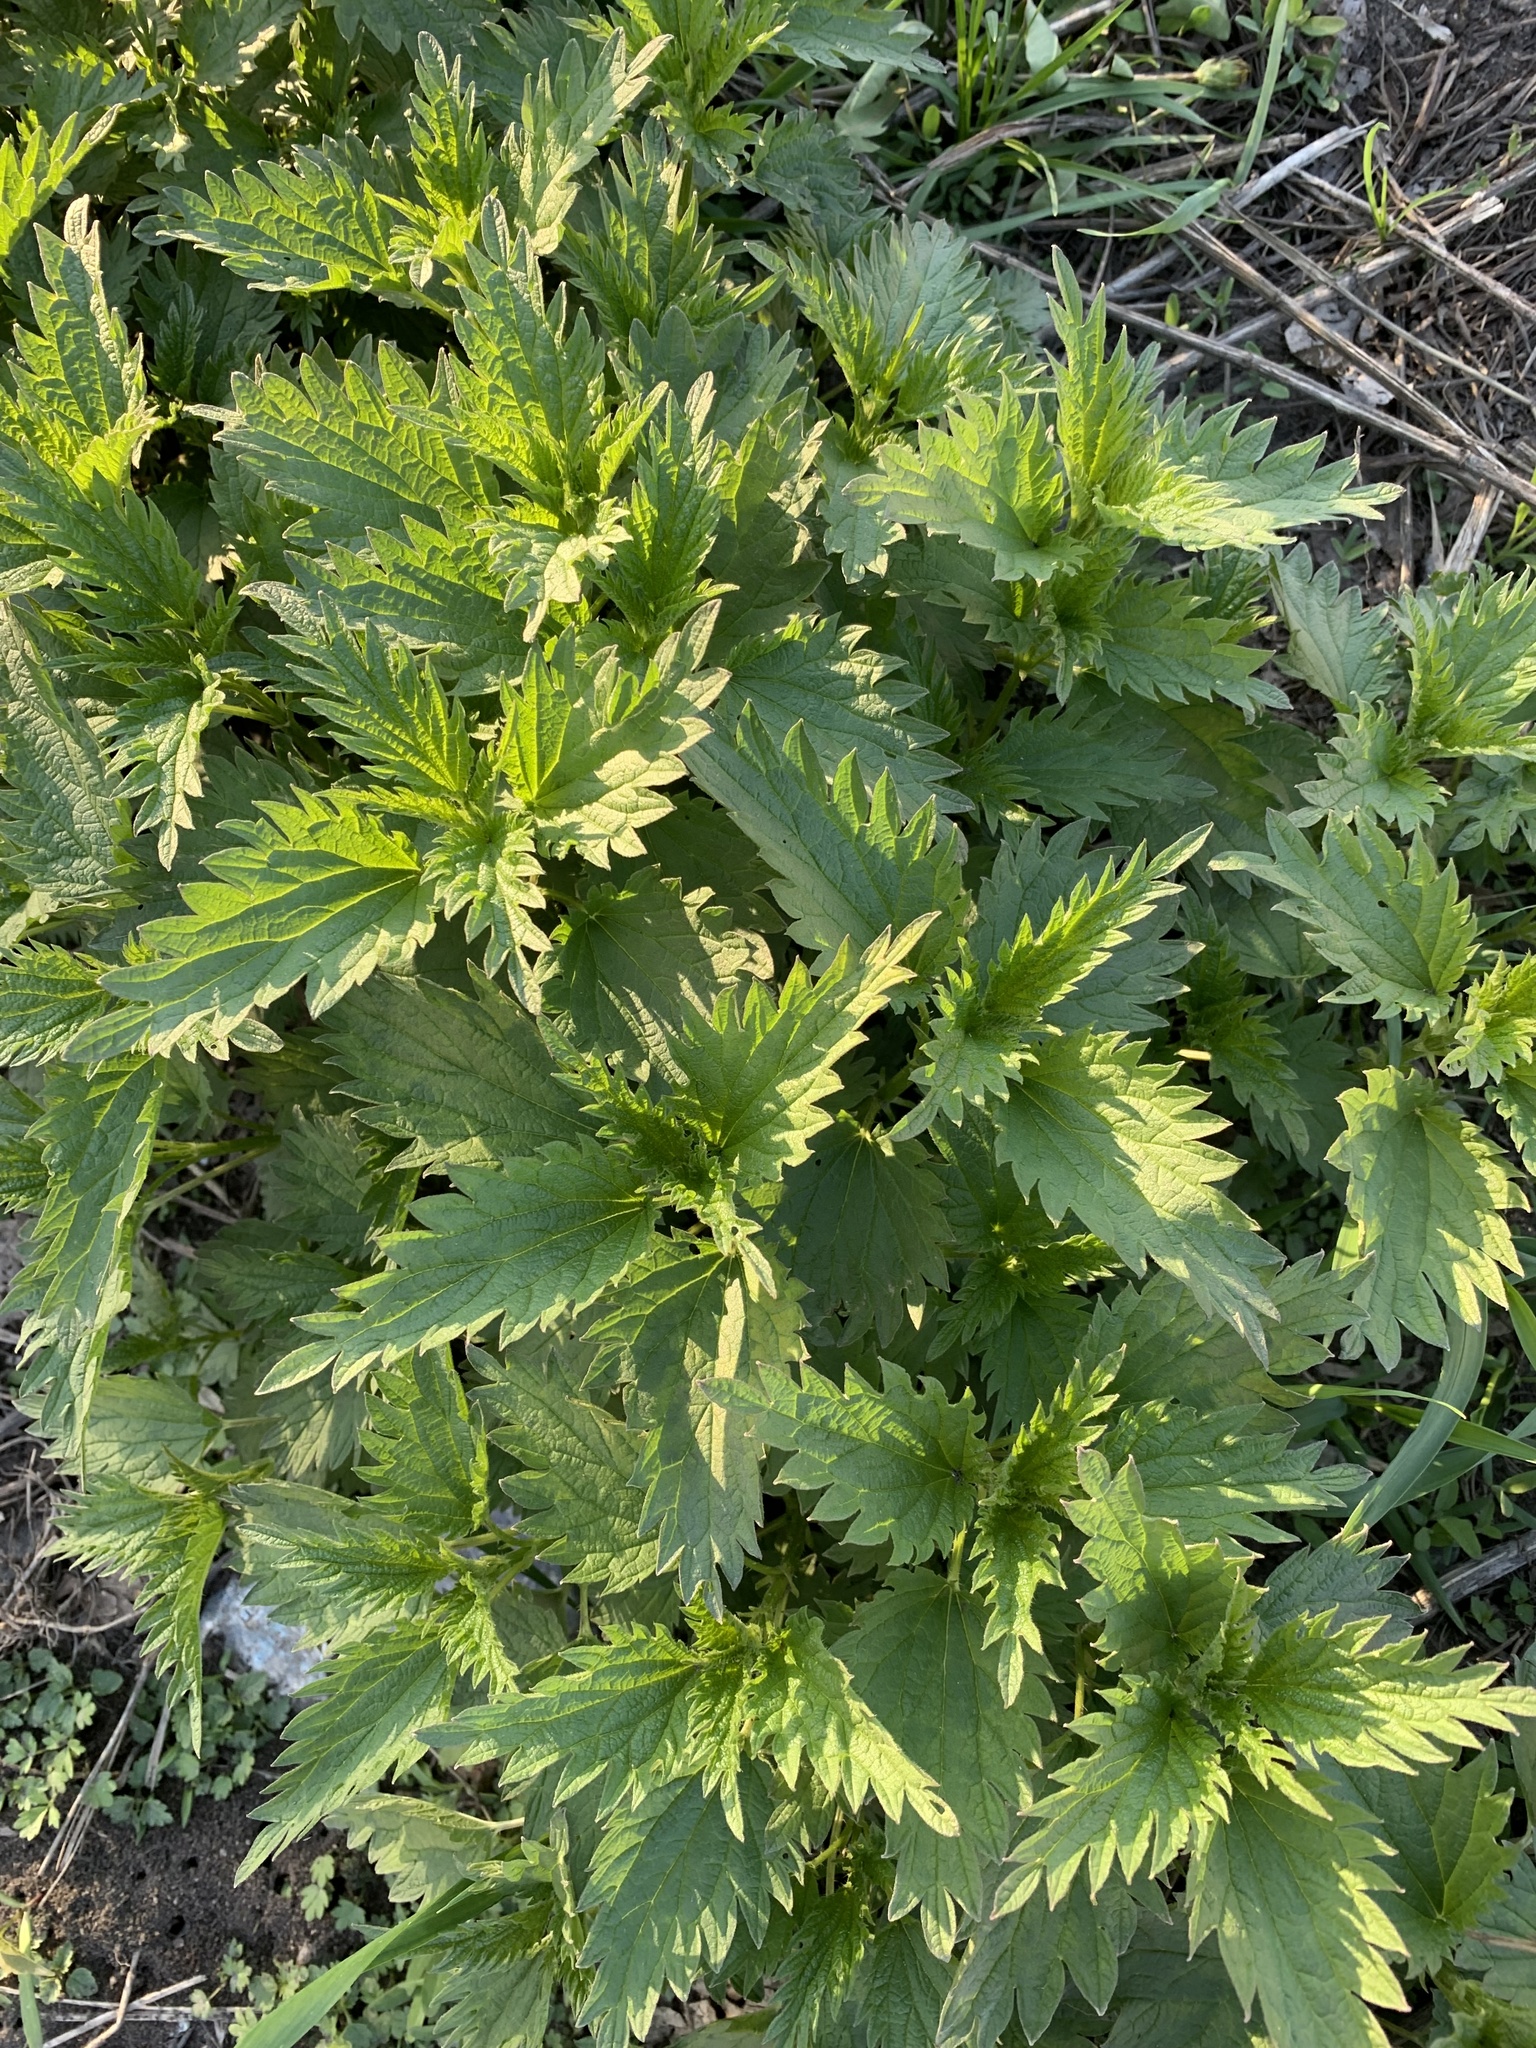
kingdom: Plantae
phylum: Tracheophyta
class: Magnoliopsida
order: Rosales
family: Urticaceae
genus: Urtica
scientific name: Urtica dioica
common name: Common nettle
